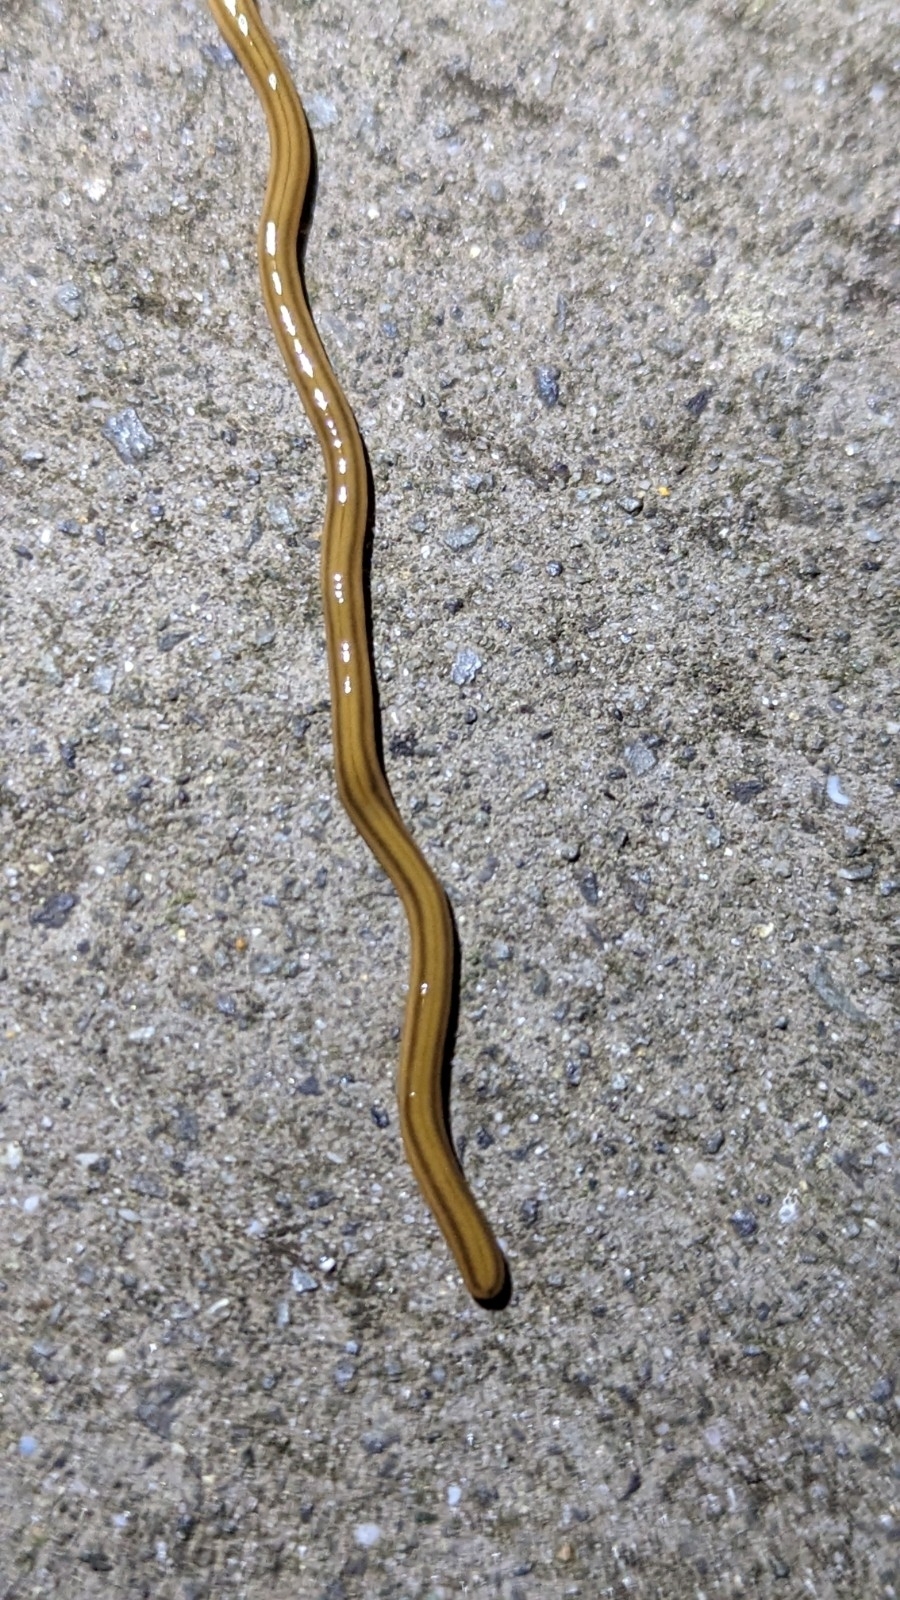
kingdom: Animalia
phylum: Platyhelminthes
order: Tricladida
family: Geoplanidae
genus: Bipalium
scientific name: Bipalium kewense
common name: Hammerhead flatworm
